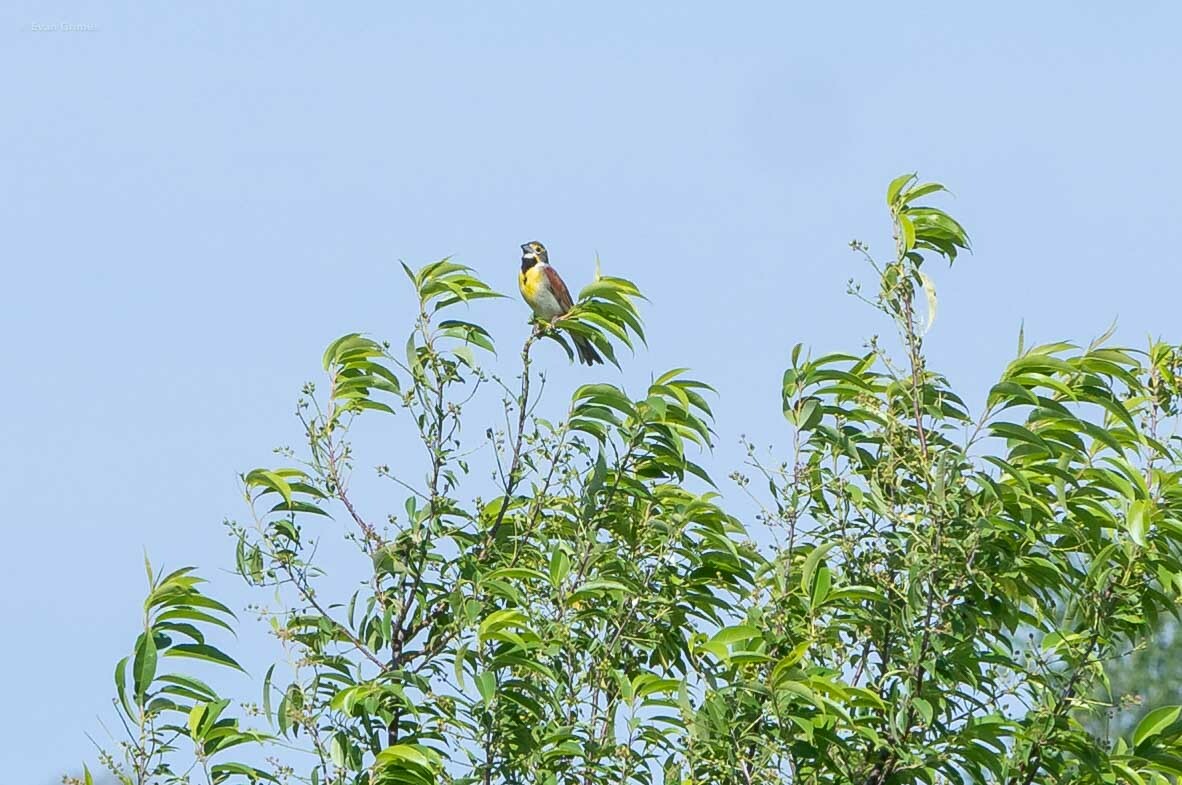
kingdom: Animalia
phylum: Chordata
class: Aves
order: Passeriformes
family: Cardinalidae
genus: Spiza
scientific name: Spiza americana
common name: Dickcissel
